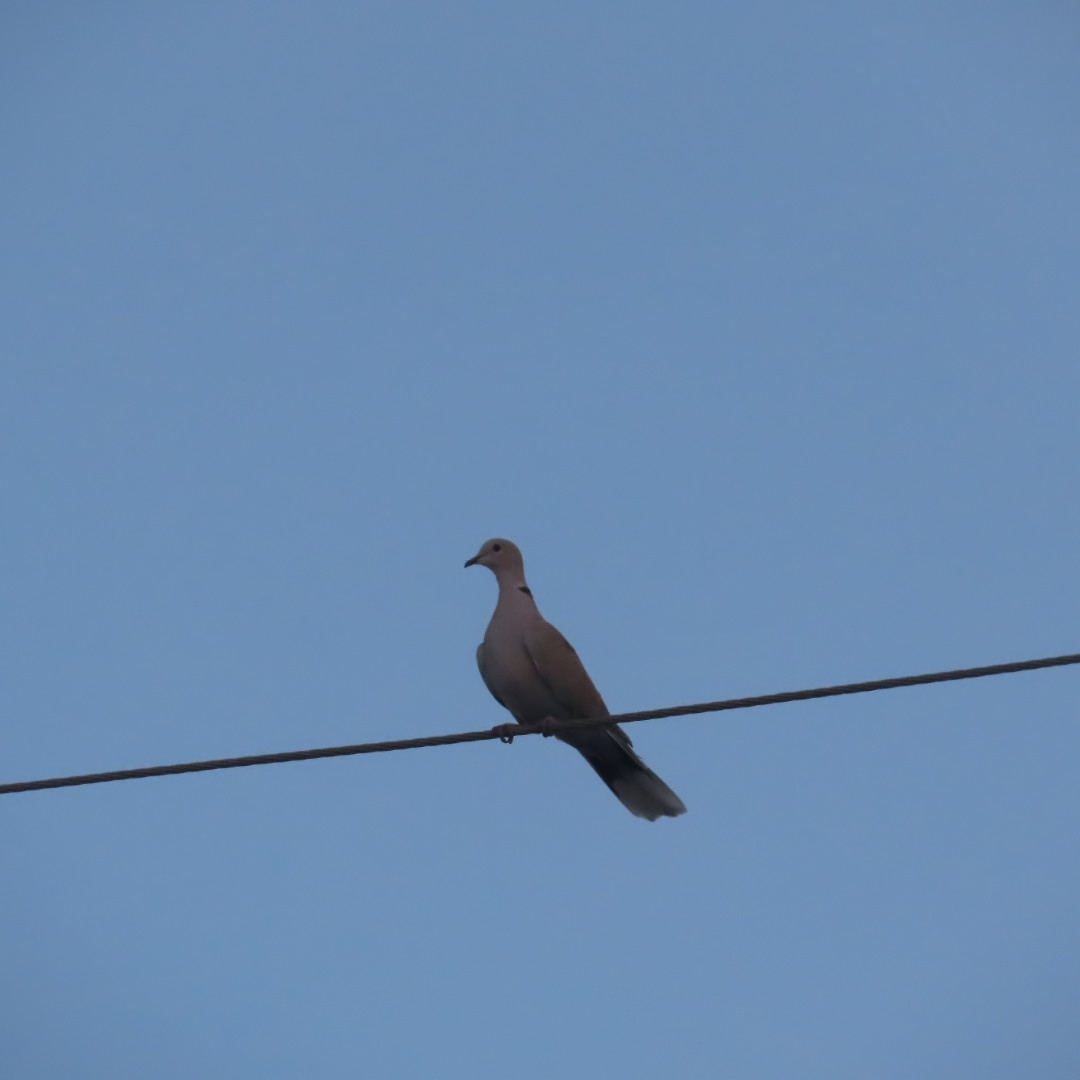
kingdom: Animalia
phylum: Chordata
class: Aves
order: Columbiformes
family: Columbidae
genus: Streptopelia
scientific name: Streptopelia decaocto
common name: Eurasian collared dove
